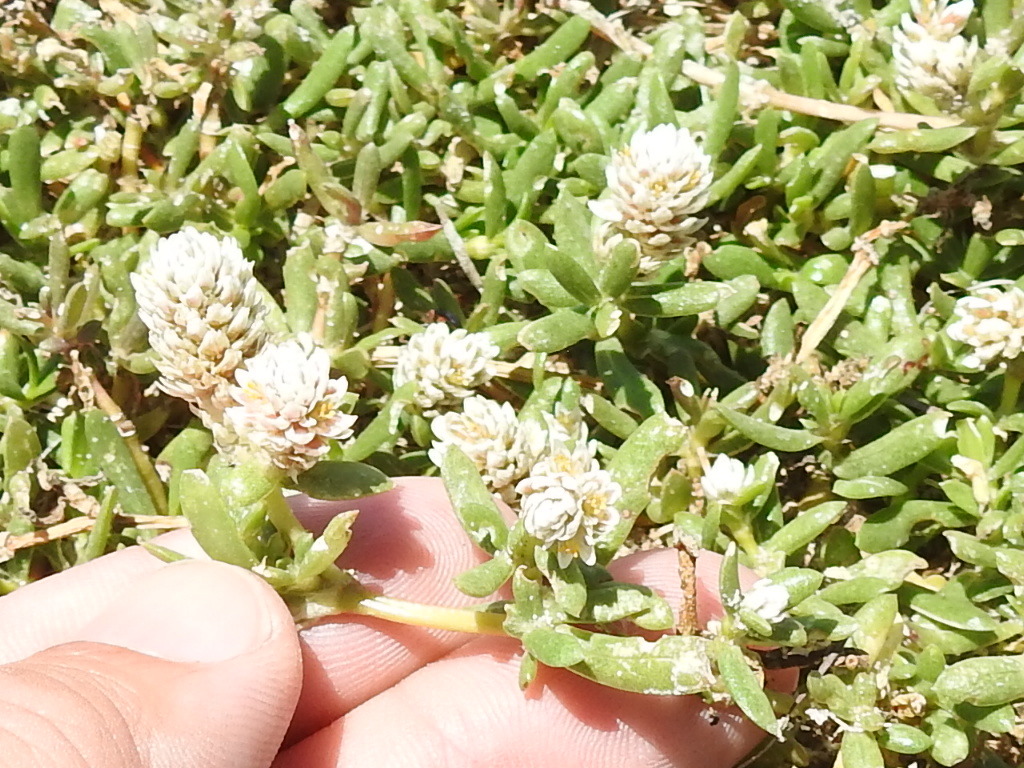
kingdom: Plantae
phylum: Tracheophyta
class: Magnoliopsida
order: Caryophyllales
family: Amaranthaceae
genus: Gomphrena
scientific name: Gomphrena vermicularis
